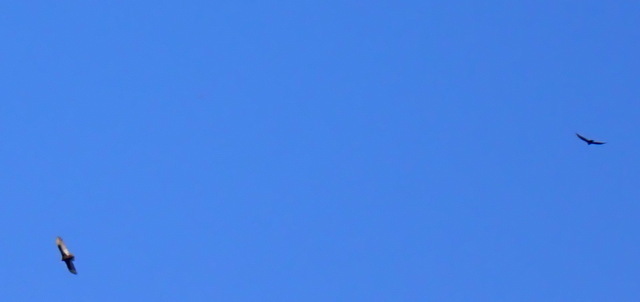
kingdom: Animalia
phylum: Chordata
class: Aves
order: Accipitriformes
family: Cathartidae
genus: Cathartes
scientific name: Cathartes aura
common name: Turkey vulture
